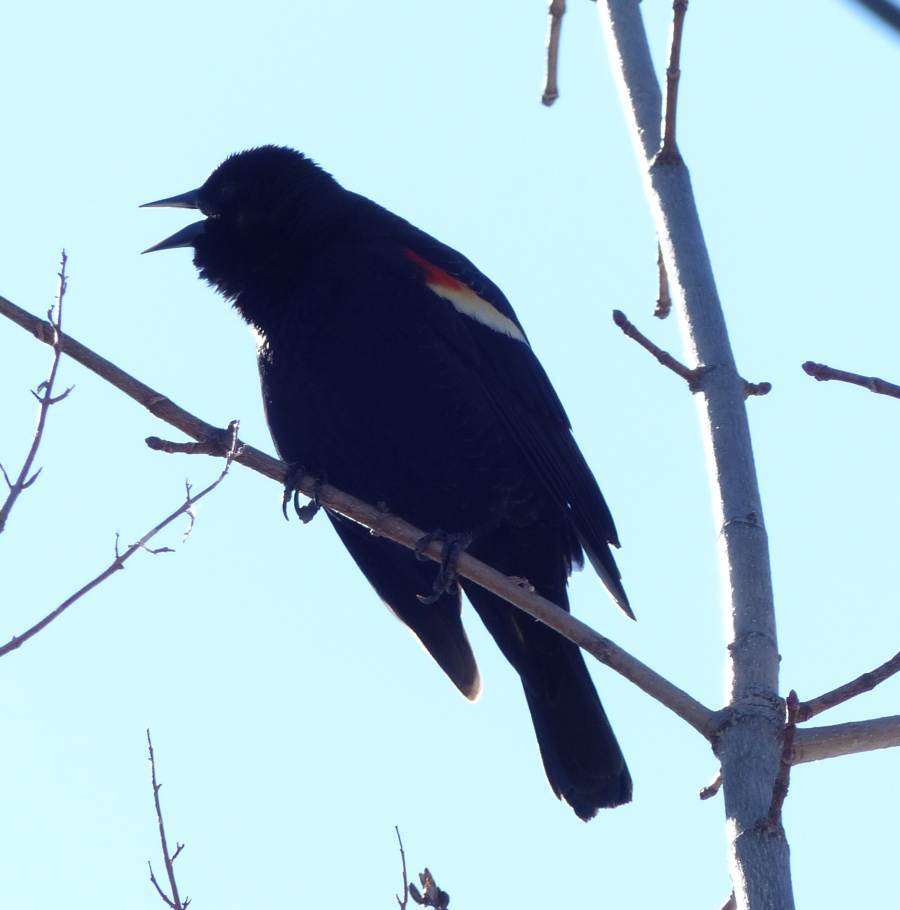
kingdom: Animalia
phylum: Chordata
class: Aves
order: Passeriformes
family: Icteridae
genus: Agelaius
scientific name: Agelaius phoeniceus
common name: Red-winged blackbird
